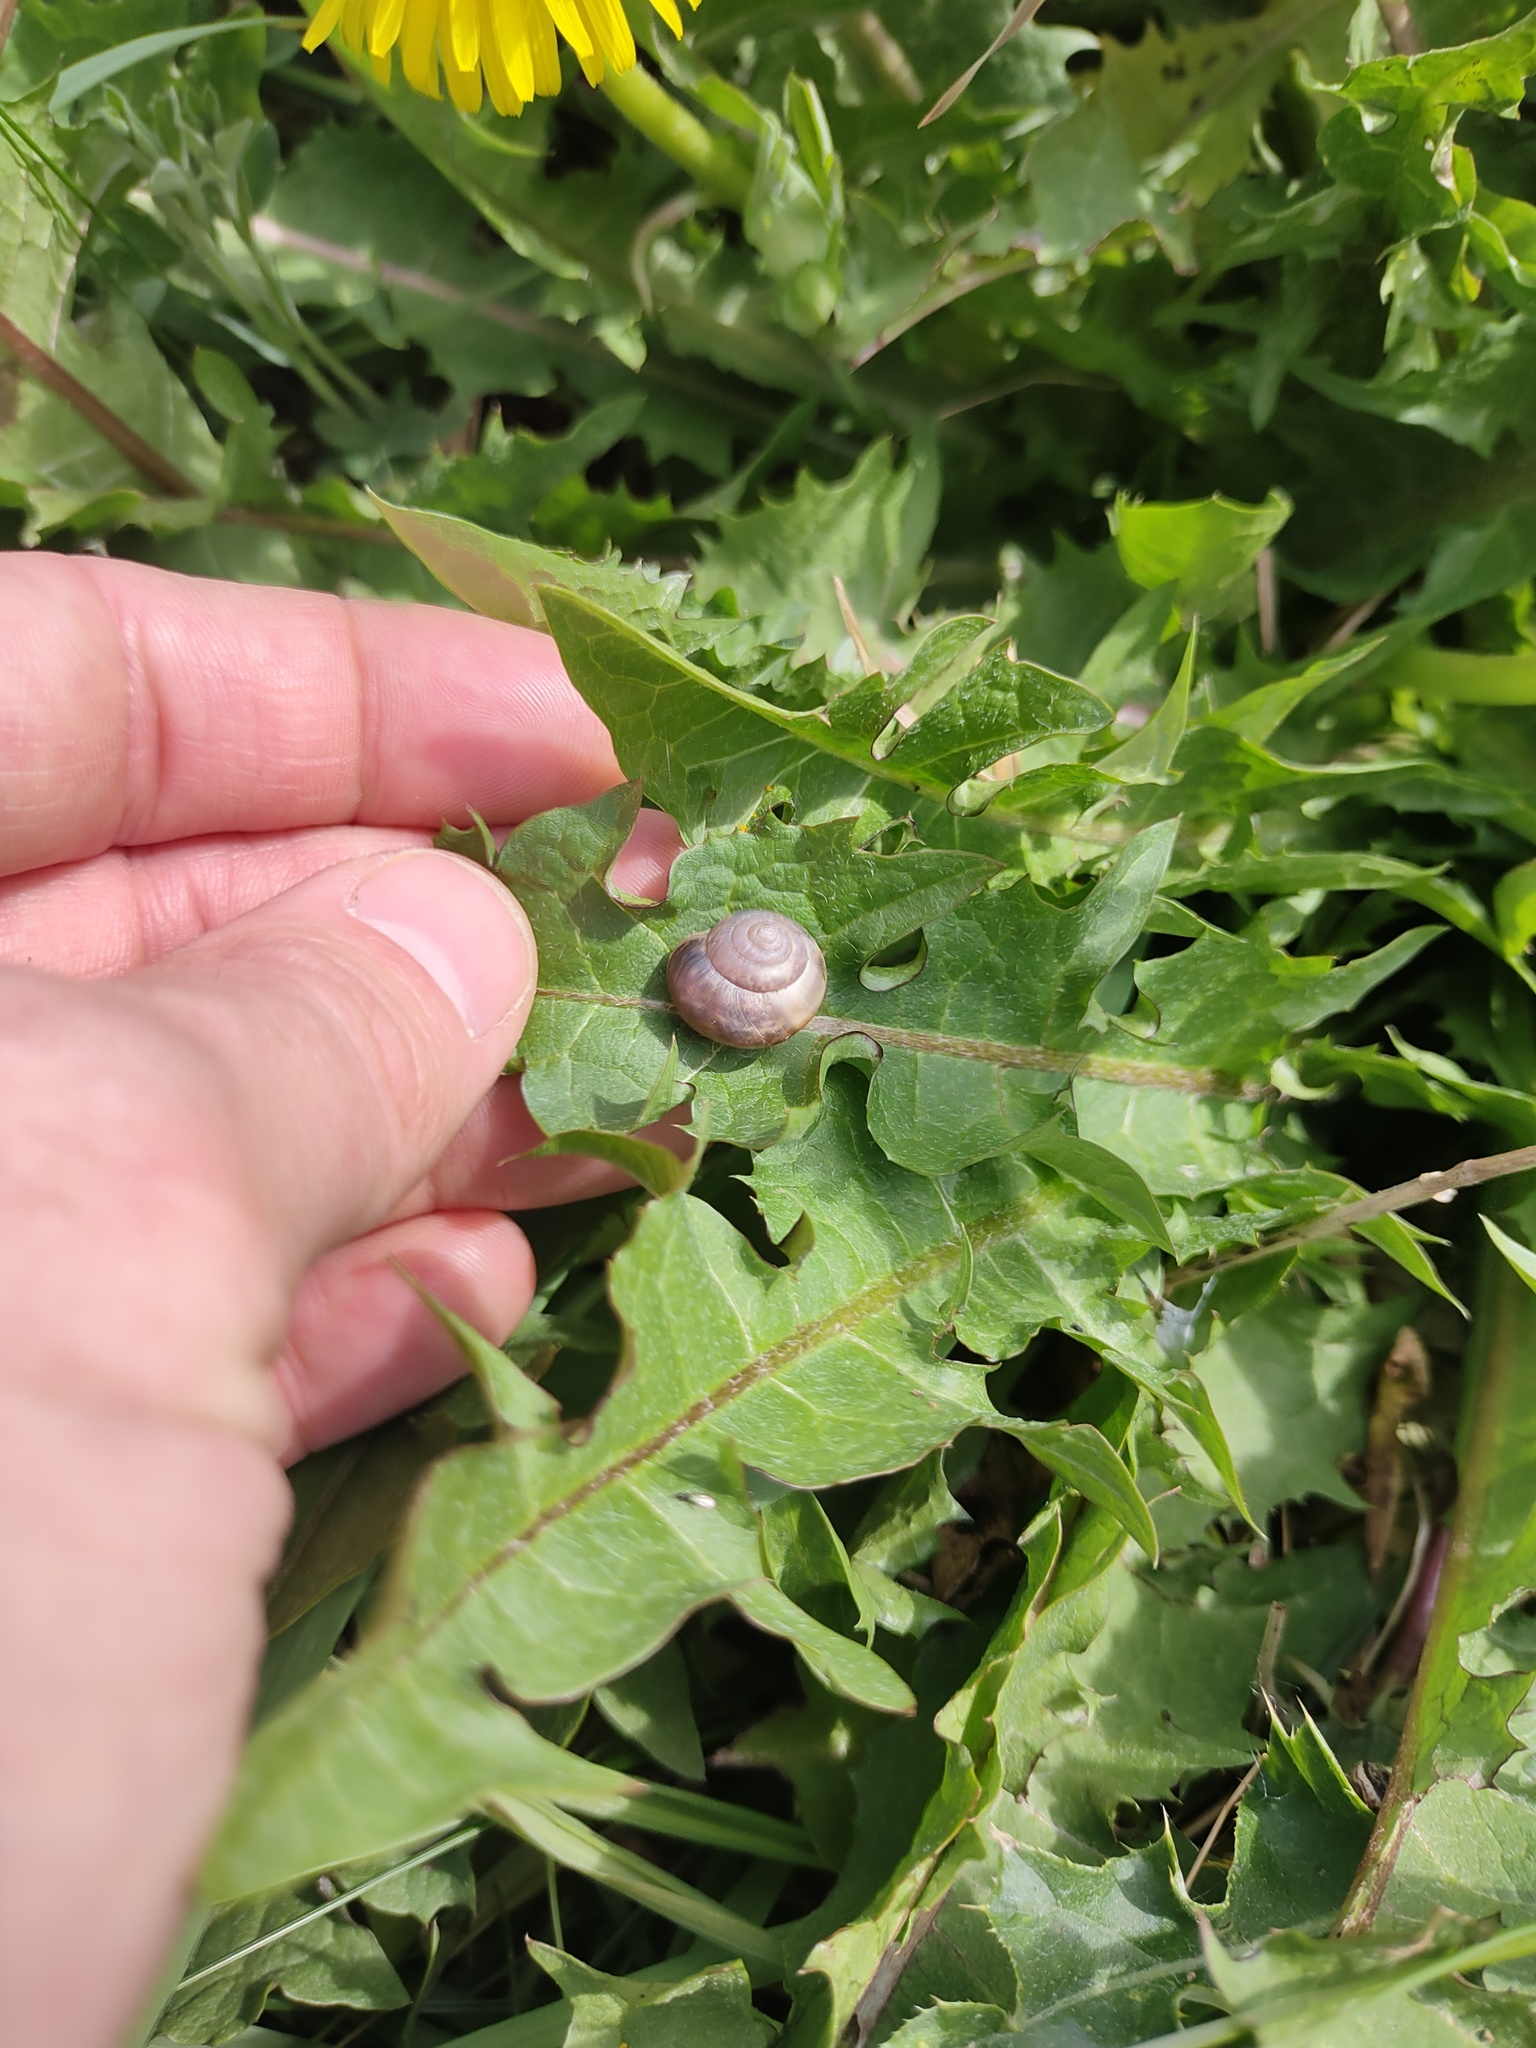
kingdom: Animalia
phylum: Mollusca
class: Gastropoda
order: Stylommatophora
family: Hygromiidae
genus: Monacha
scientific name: Monacha cantiana
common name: Kentish snail
